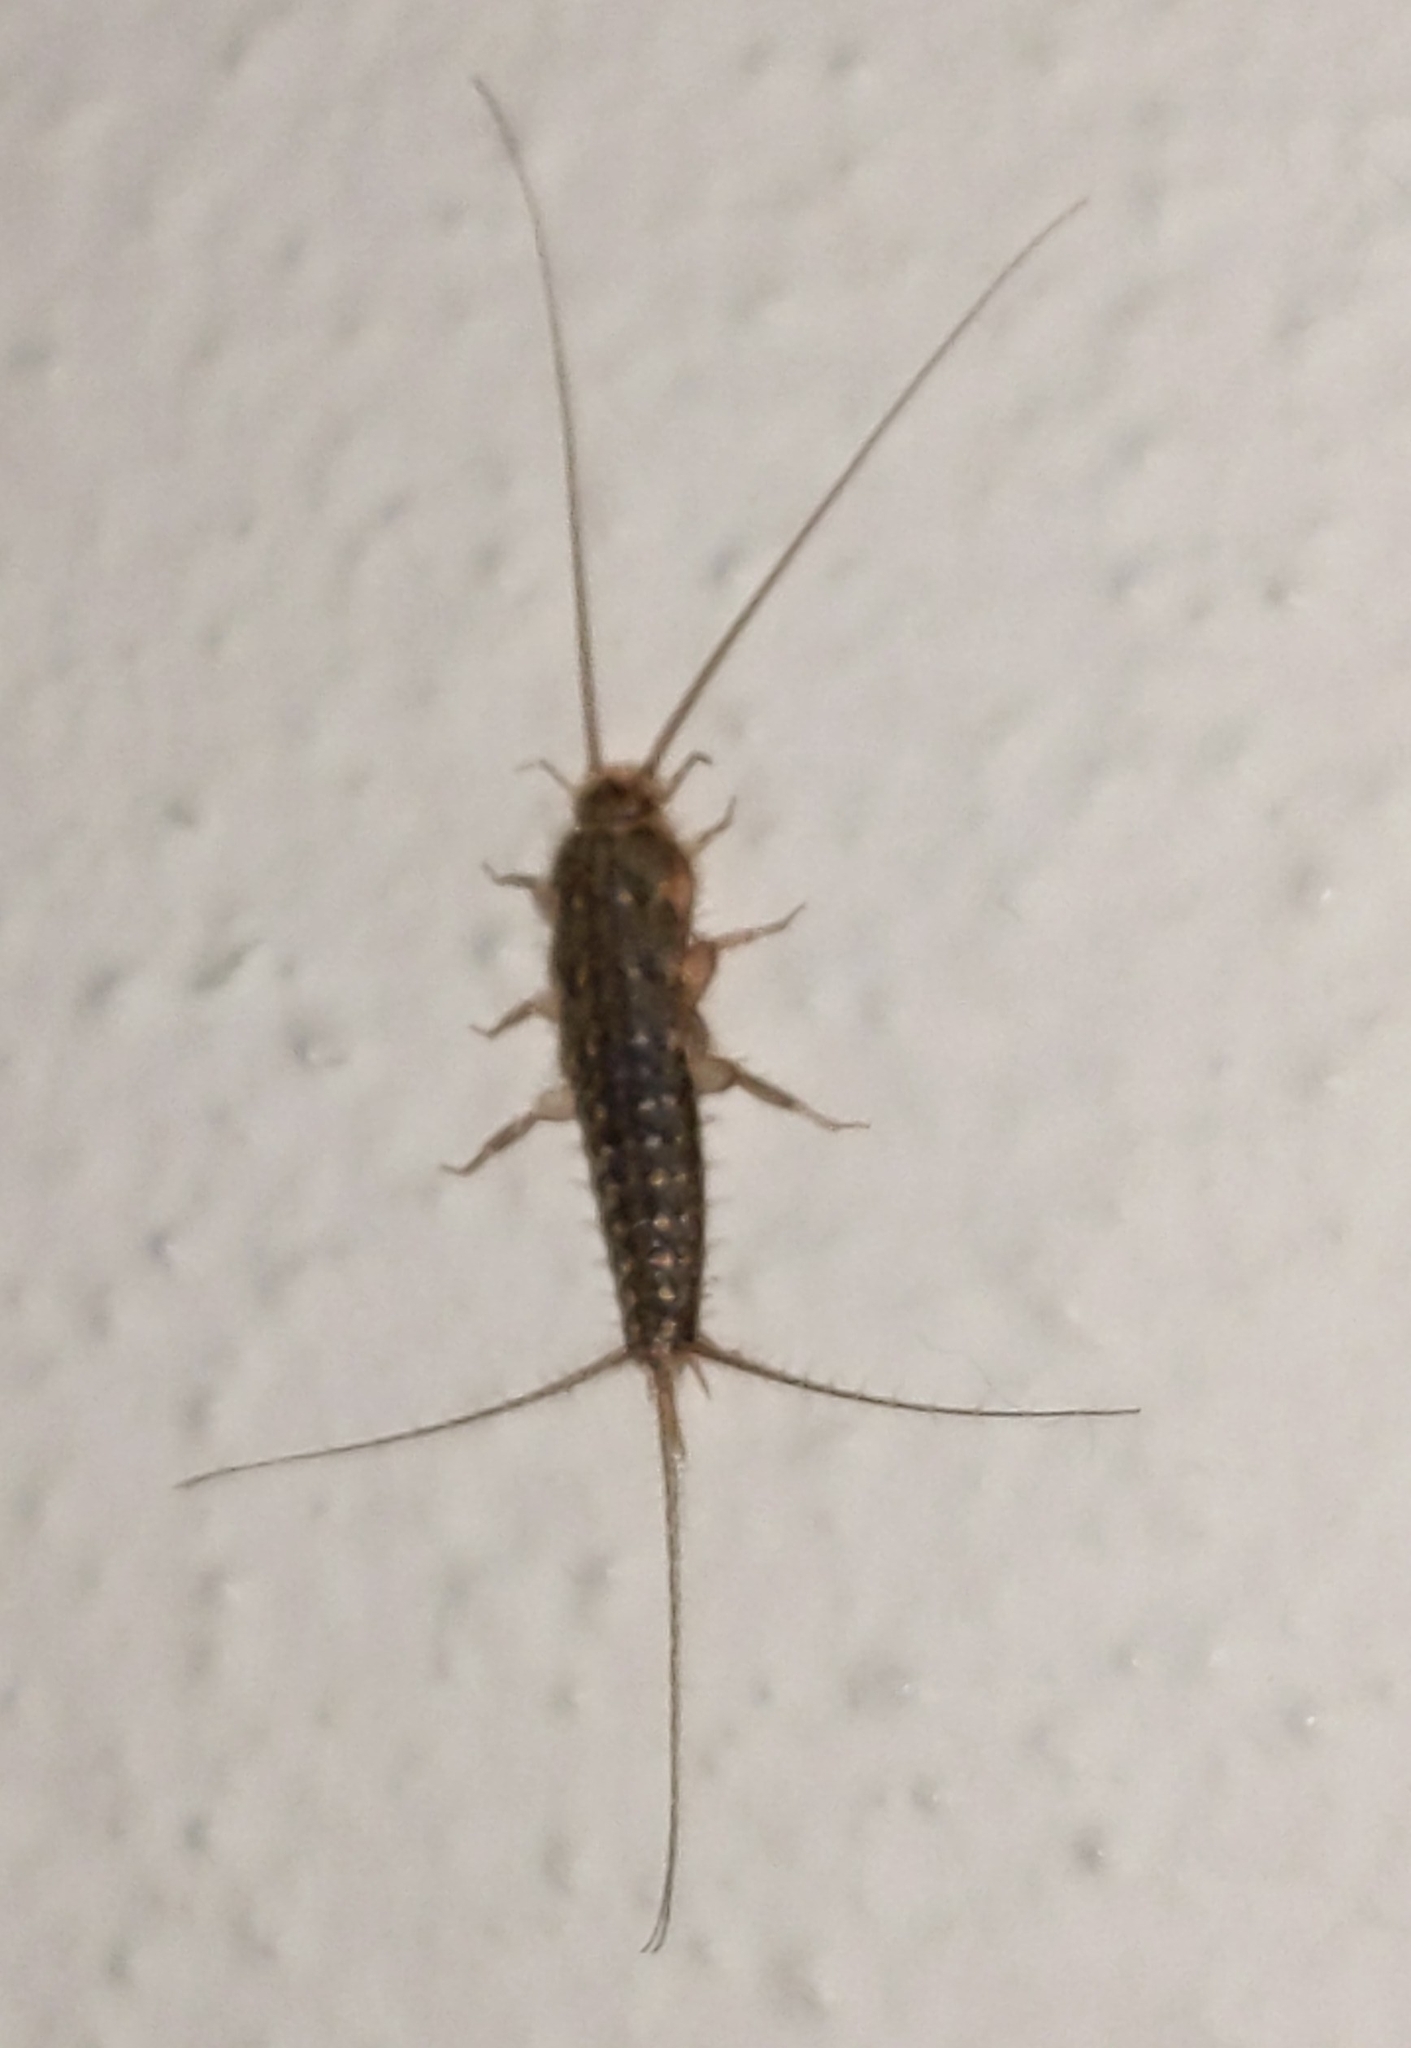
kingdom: Animalia
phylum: Arthropoda
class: Insecta
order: Zygentoma
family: Lepismatidae
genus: Ctenolepisma
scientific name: Ctenolepisma lineata
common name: Four-lined silverfish
